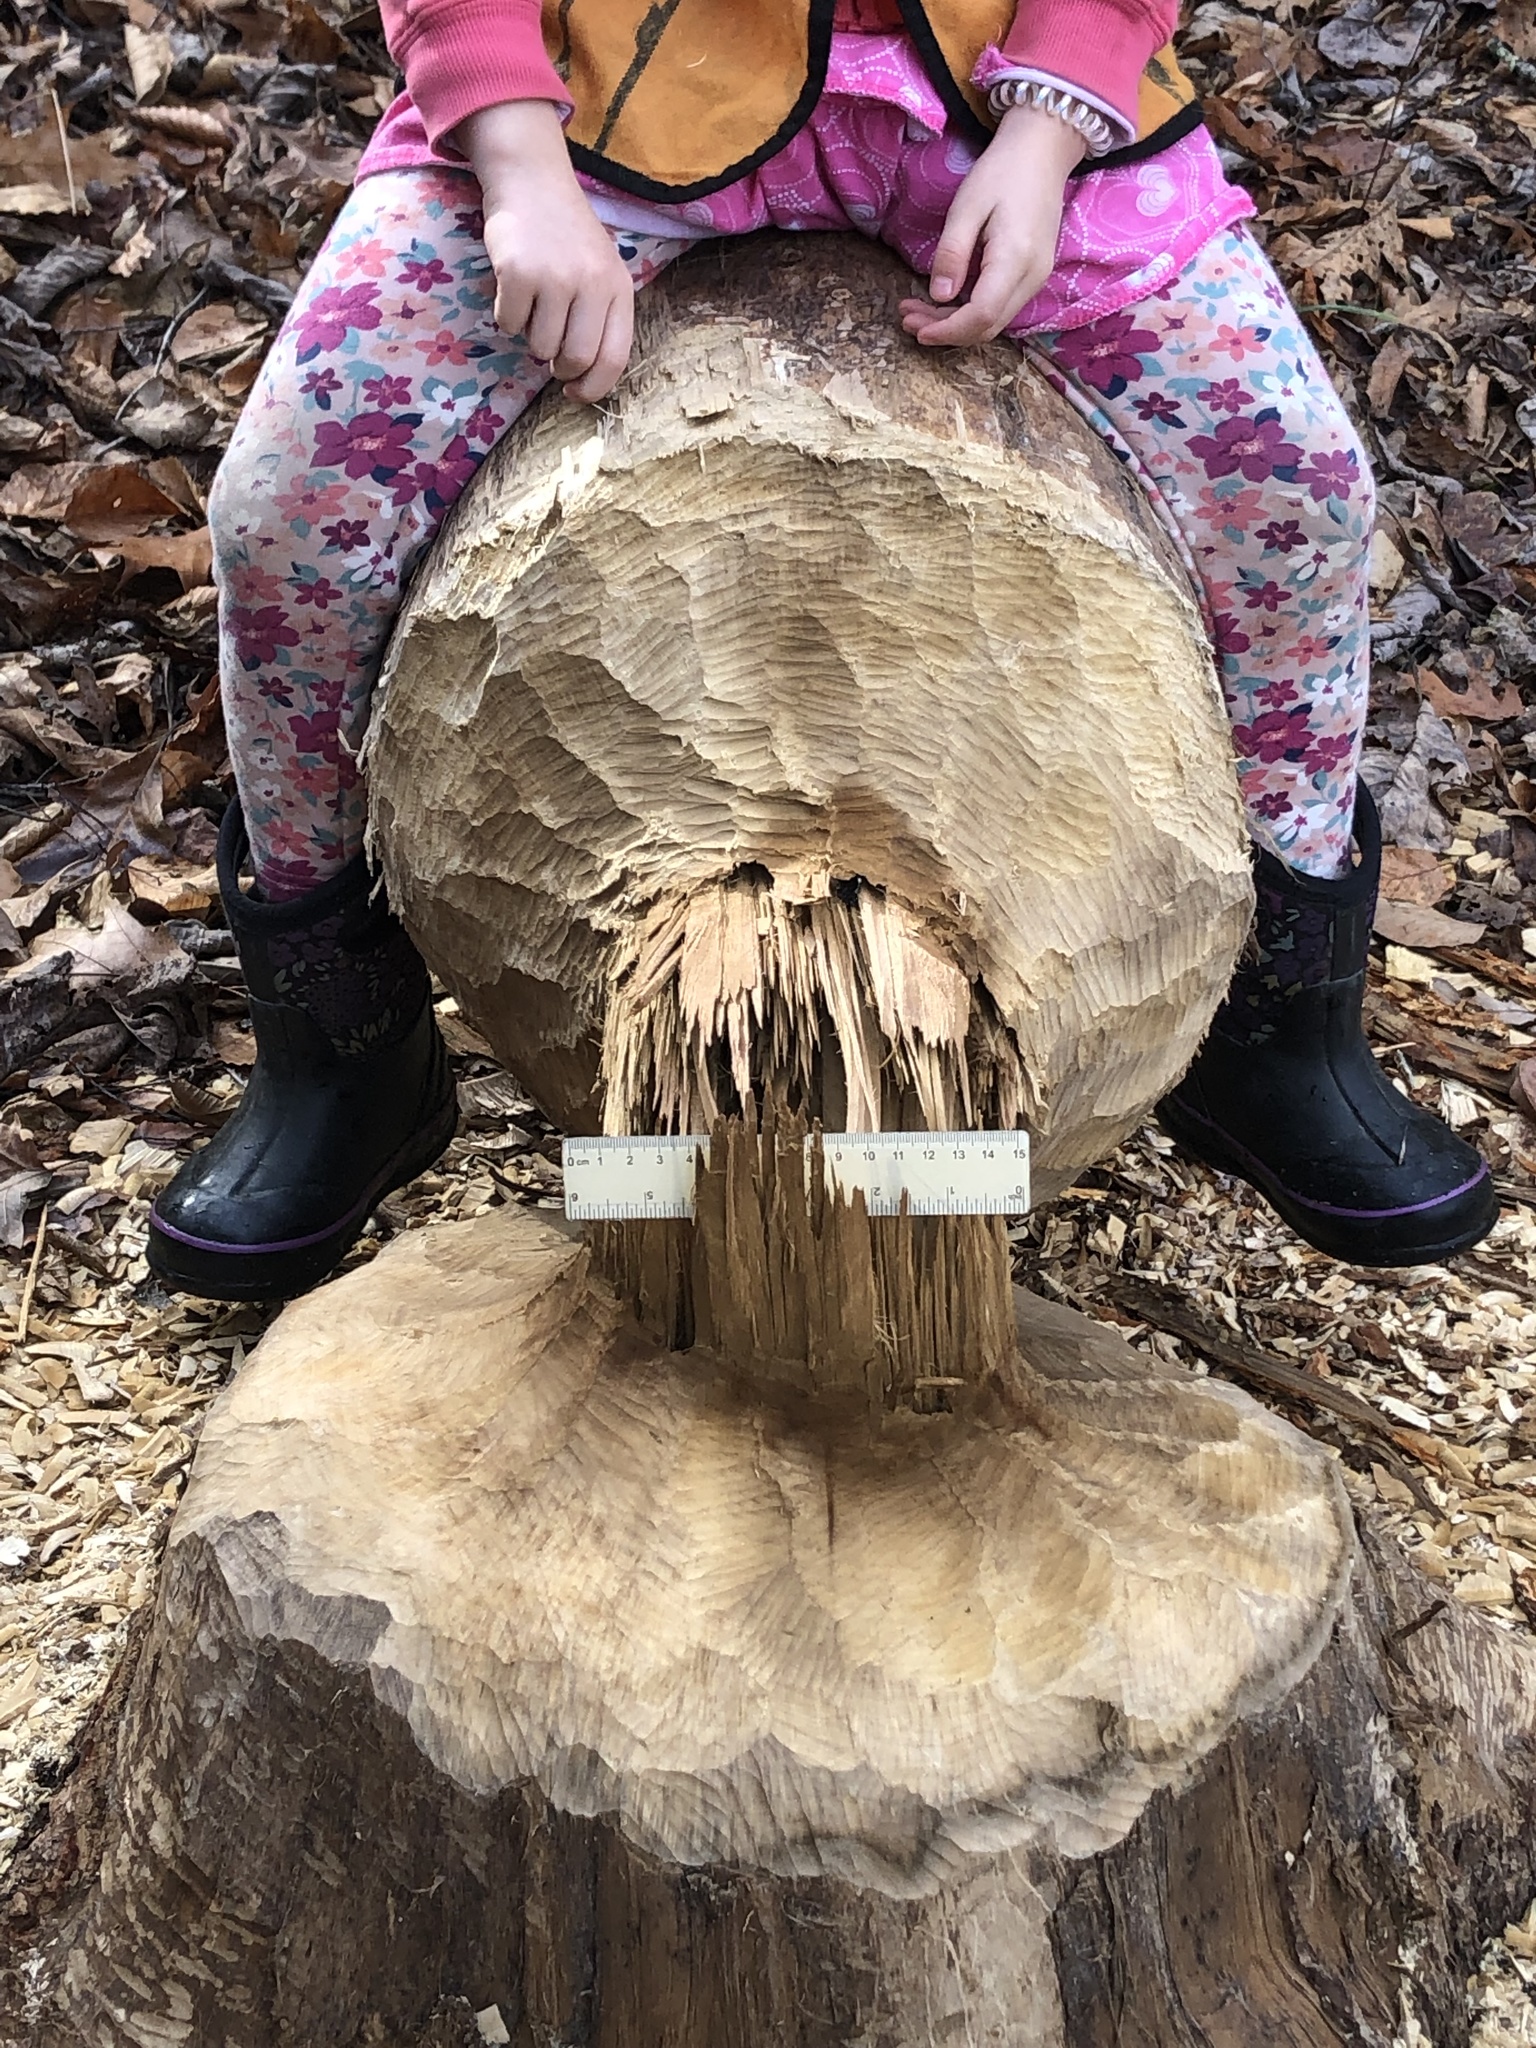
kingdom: Animalia
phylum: Chordata
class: Mammalia
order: Rodentia
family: Castoridae
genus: Castor
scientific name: Castor canadensis
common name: American beaver
